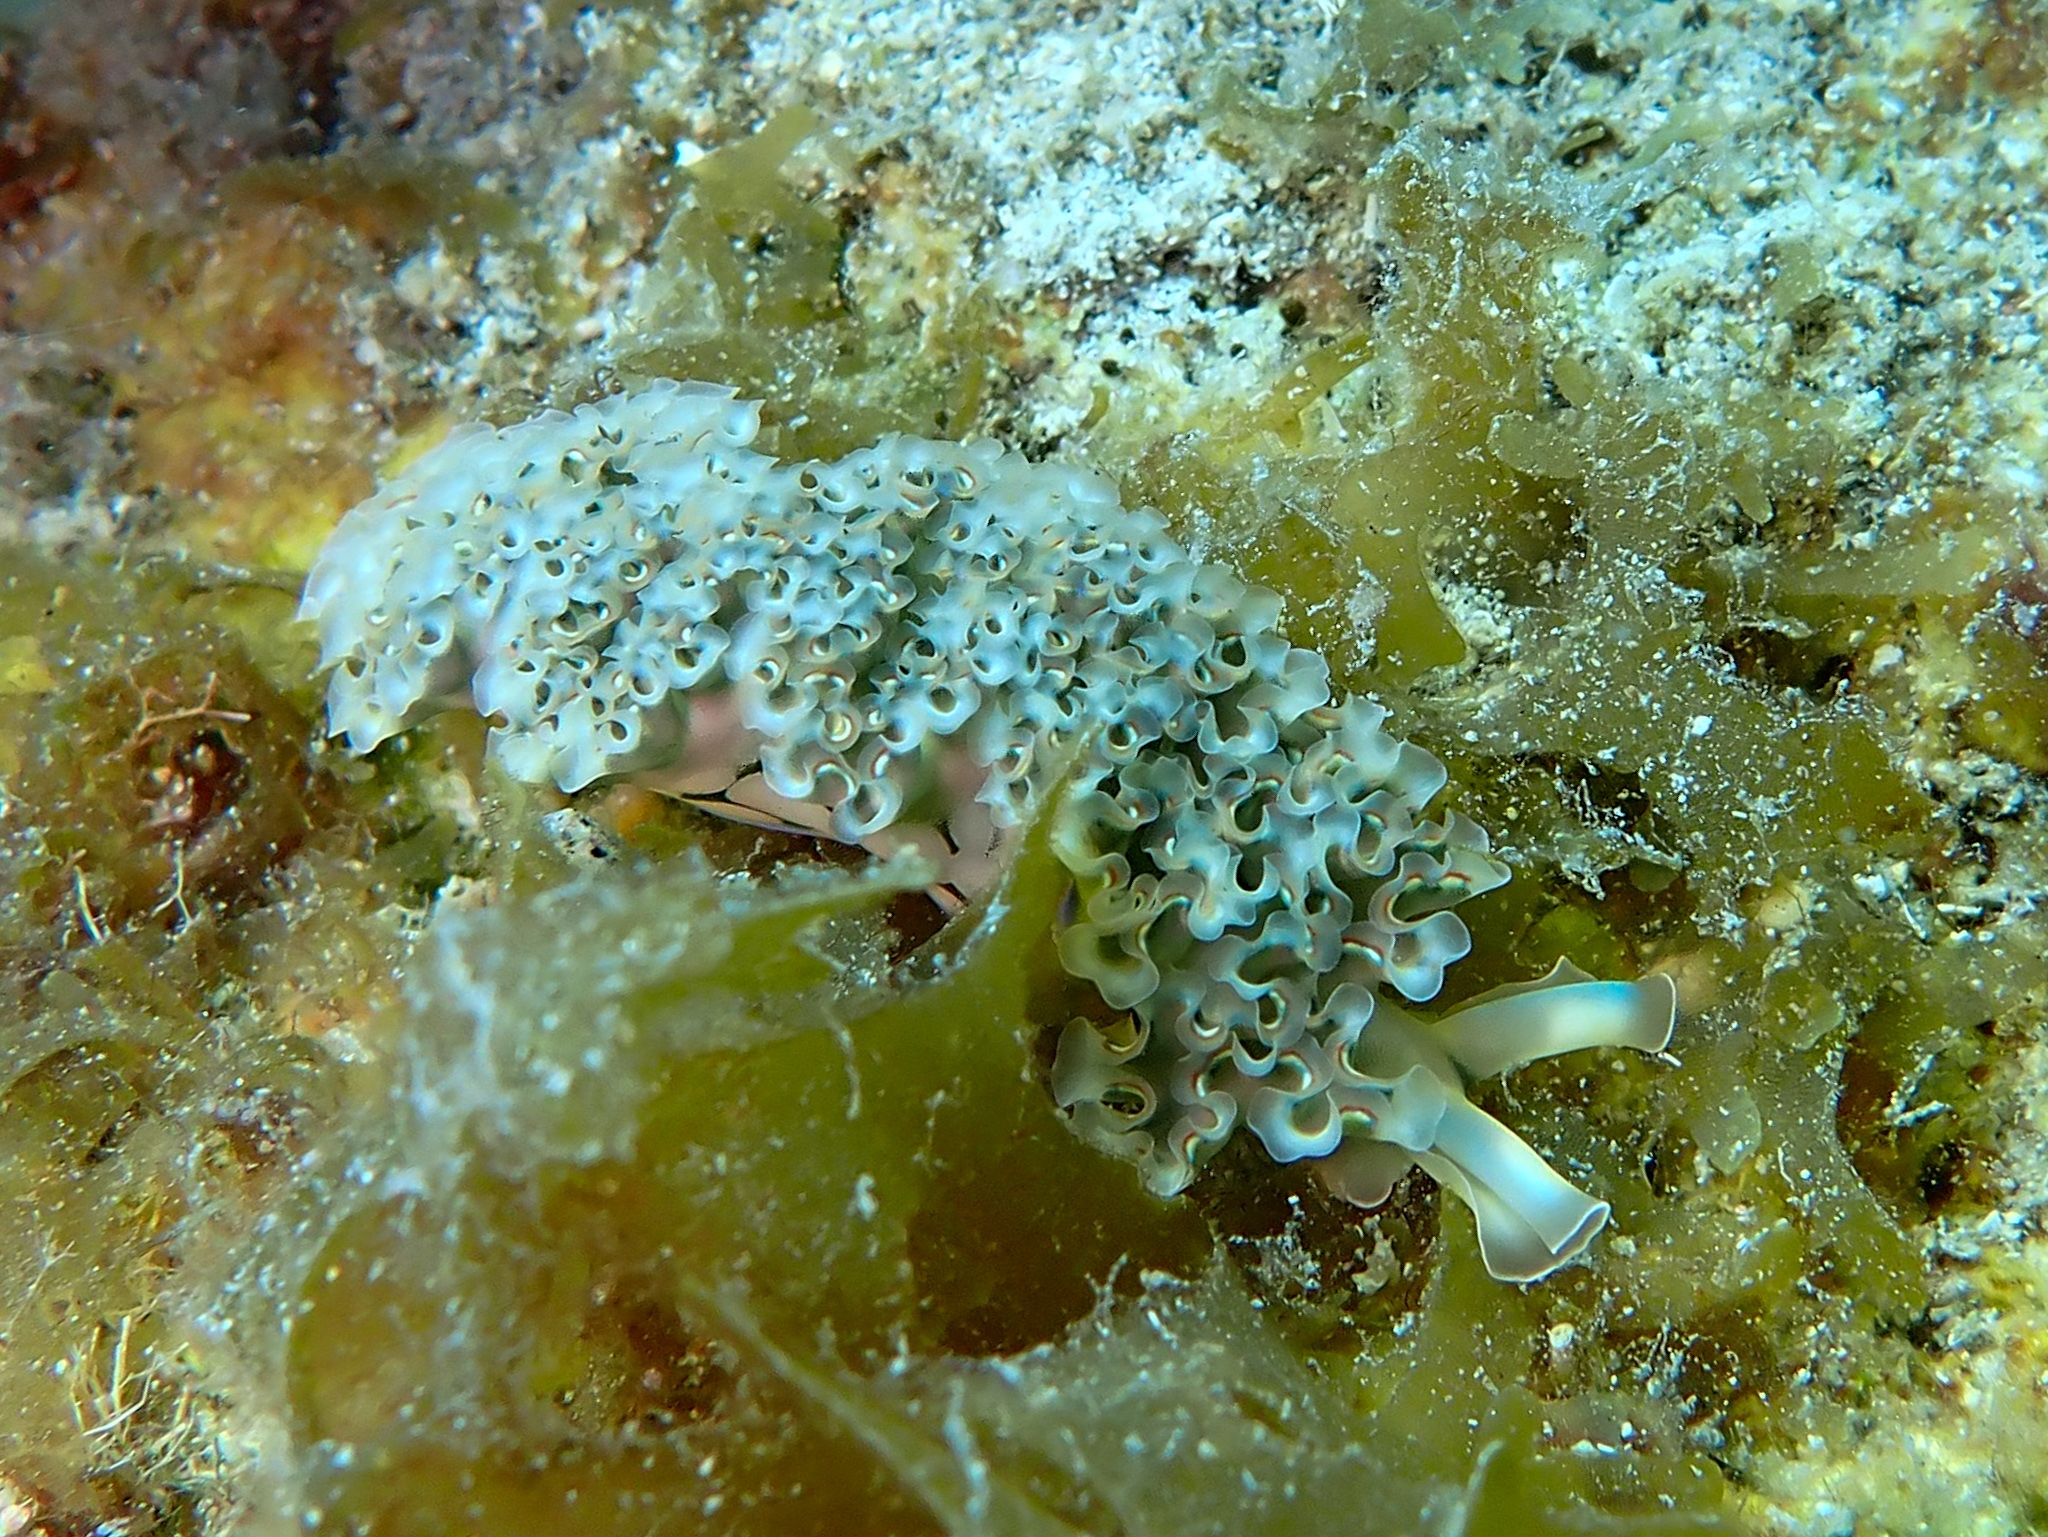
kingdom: Animalia
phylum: Mollusca
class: Gastropoda
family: Plakobranchidae
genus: Elysia
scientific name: Elysia crispata
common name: Lettuce slug
